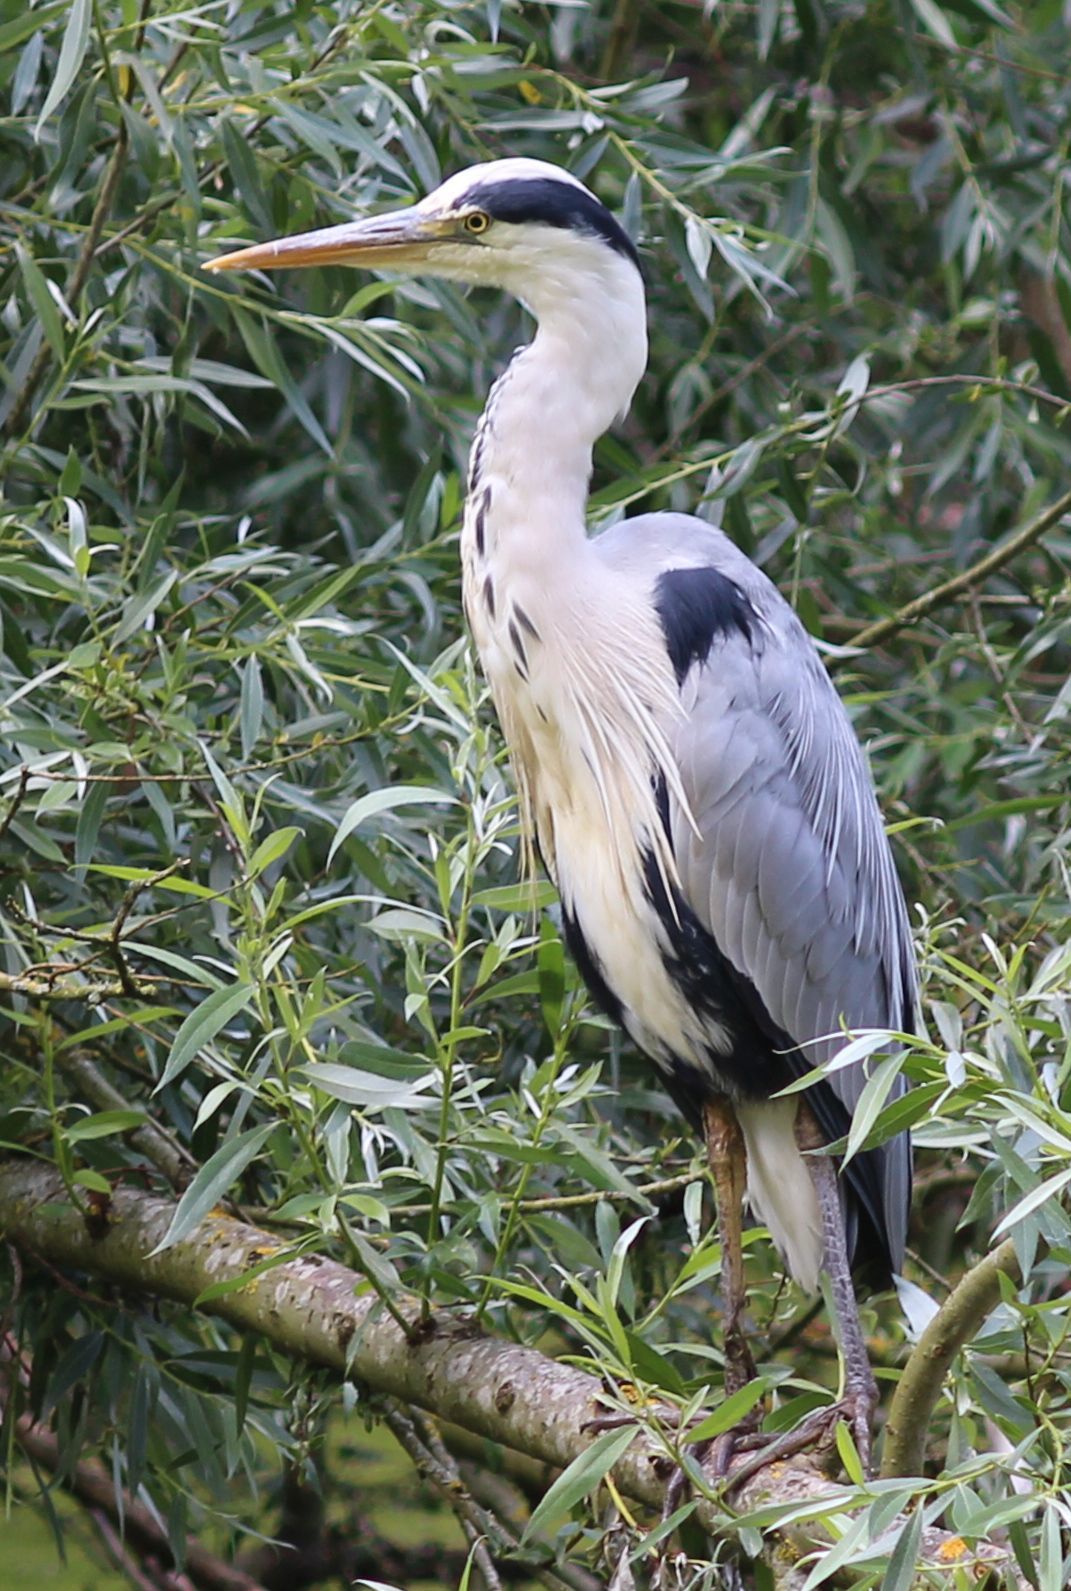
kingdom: Animalia
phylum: Chordata
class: Aves
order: Pelecaniformes
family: Ardeidae
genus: Ardea
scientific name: Ardea cinerea
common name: Grey heron
